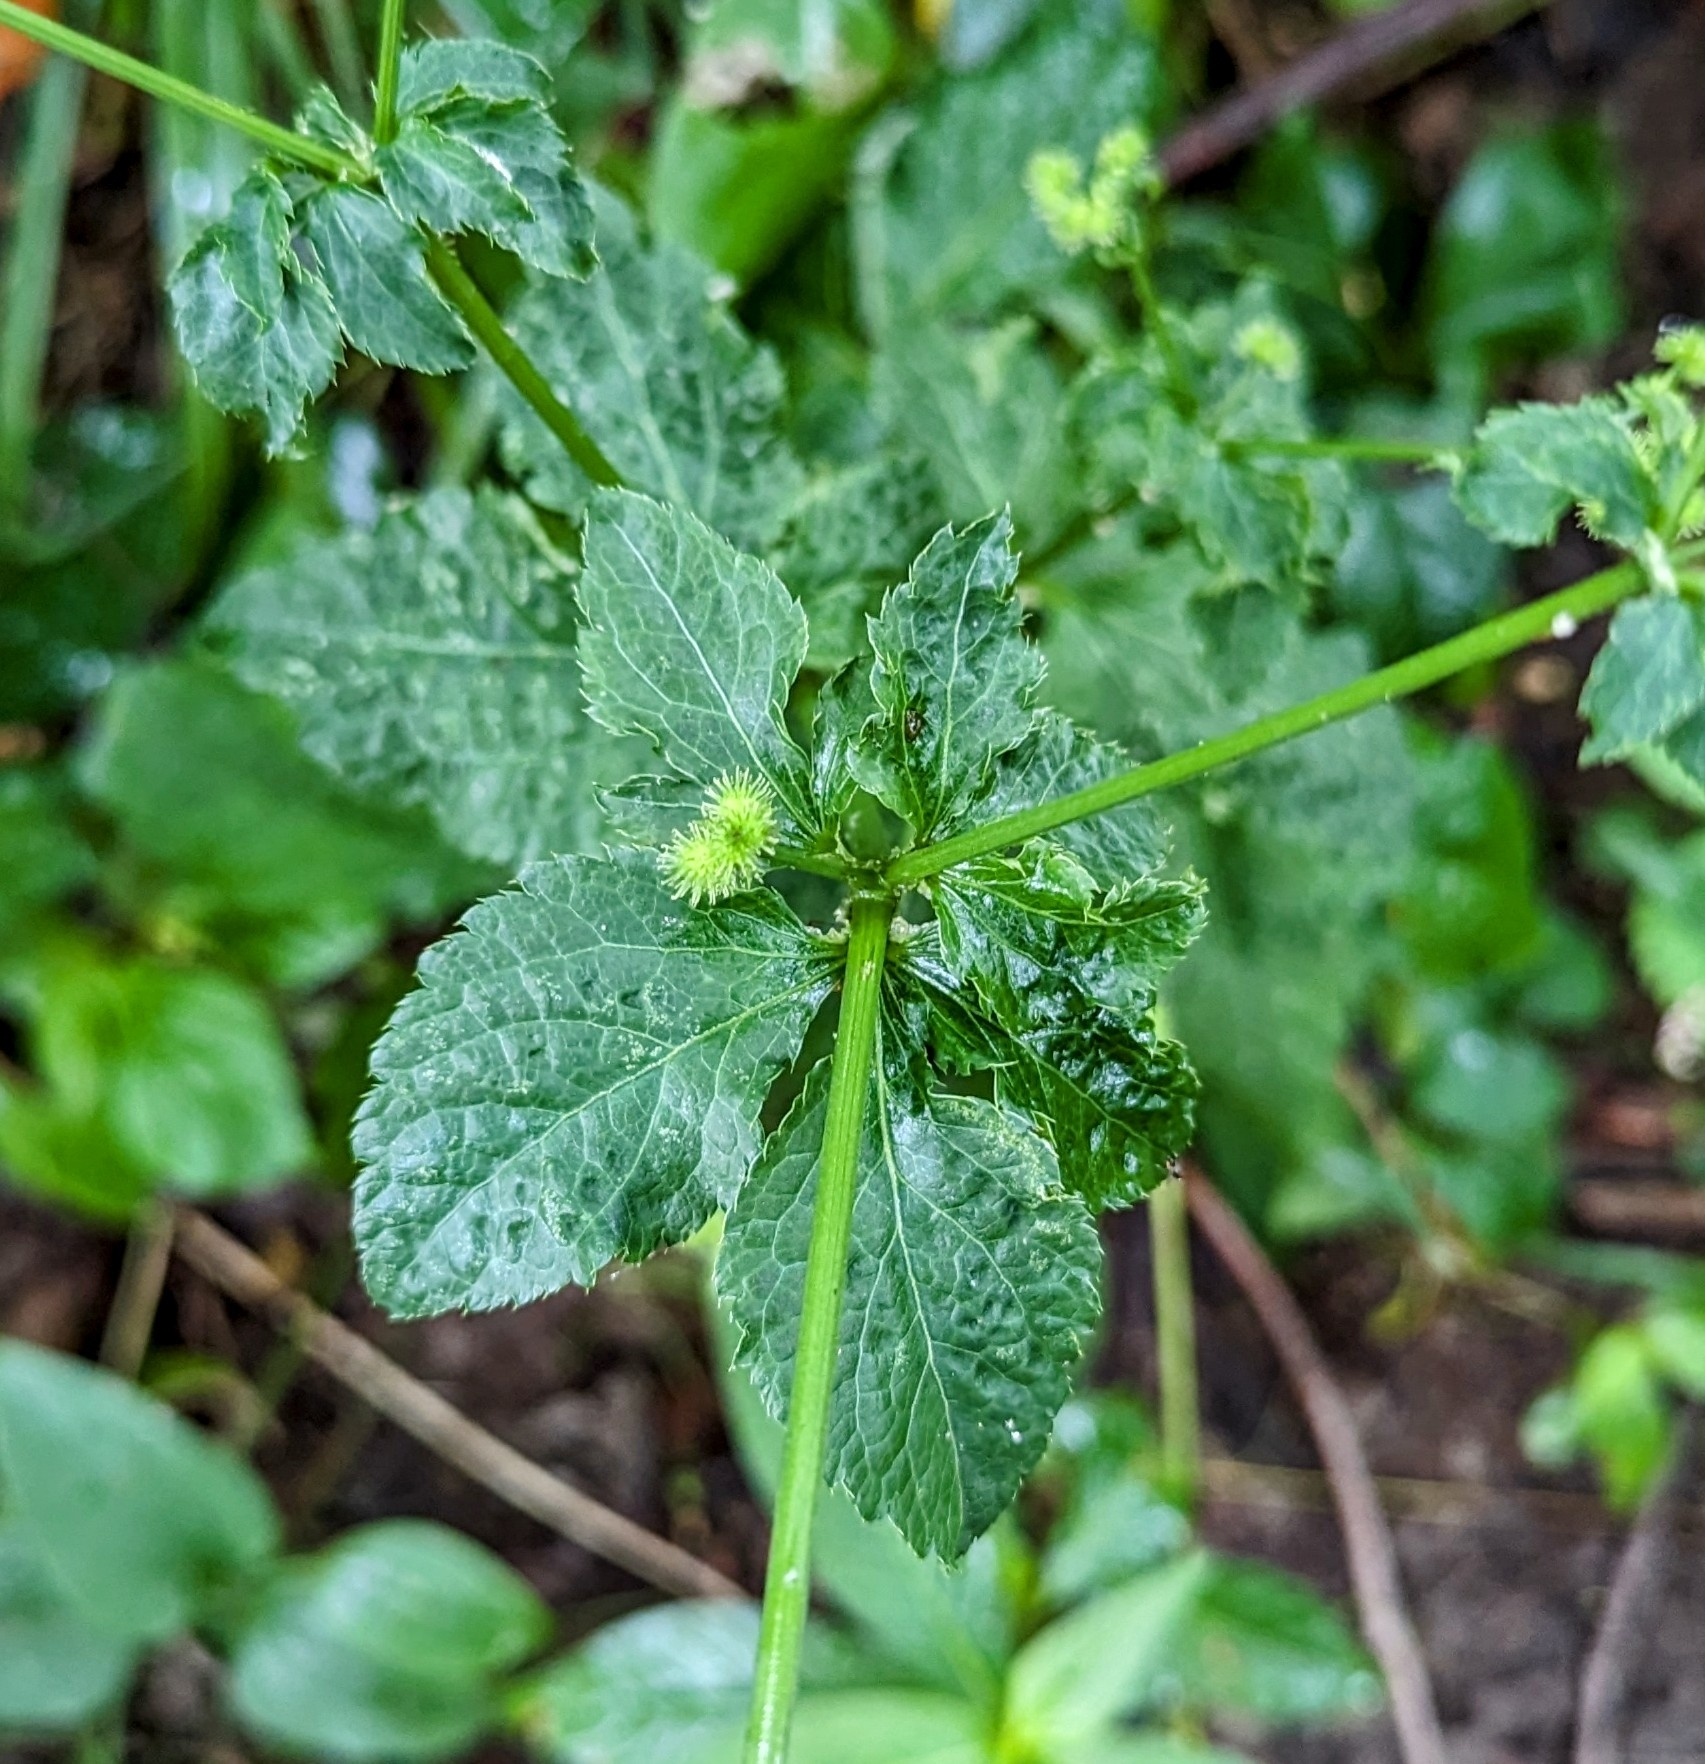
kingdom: Plantae
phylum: Tracheophyta
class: Magnoliopsida
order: Apiales
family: Apiaceae
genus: Sanicula
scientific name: Sanicula canadensis
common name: Canada sanicle
